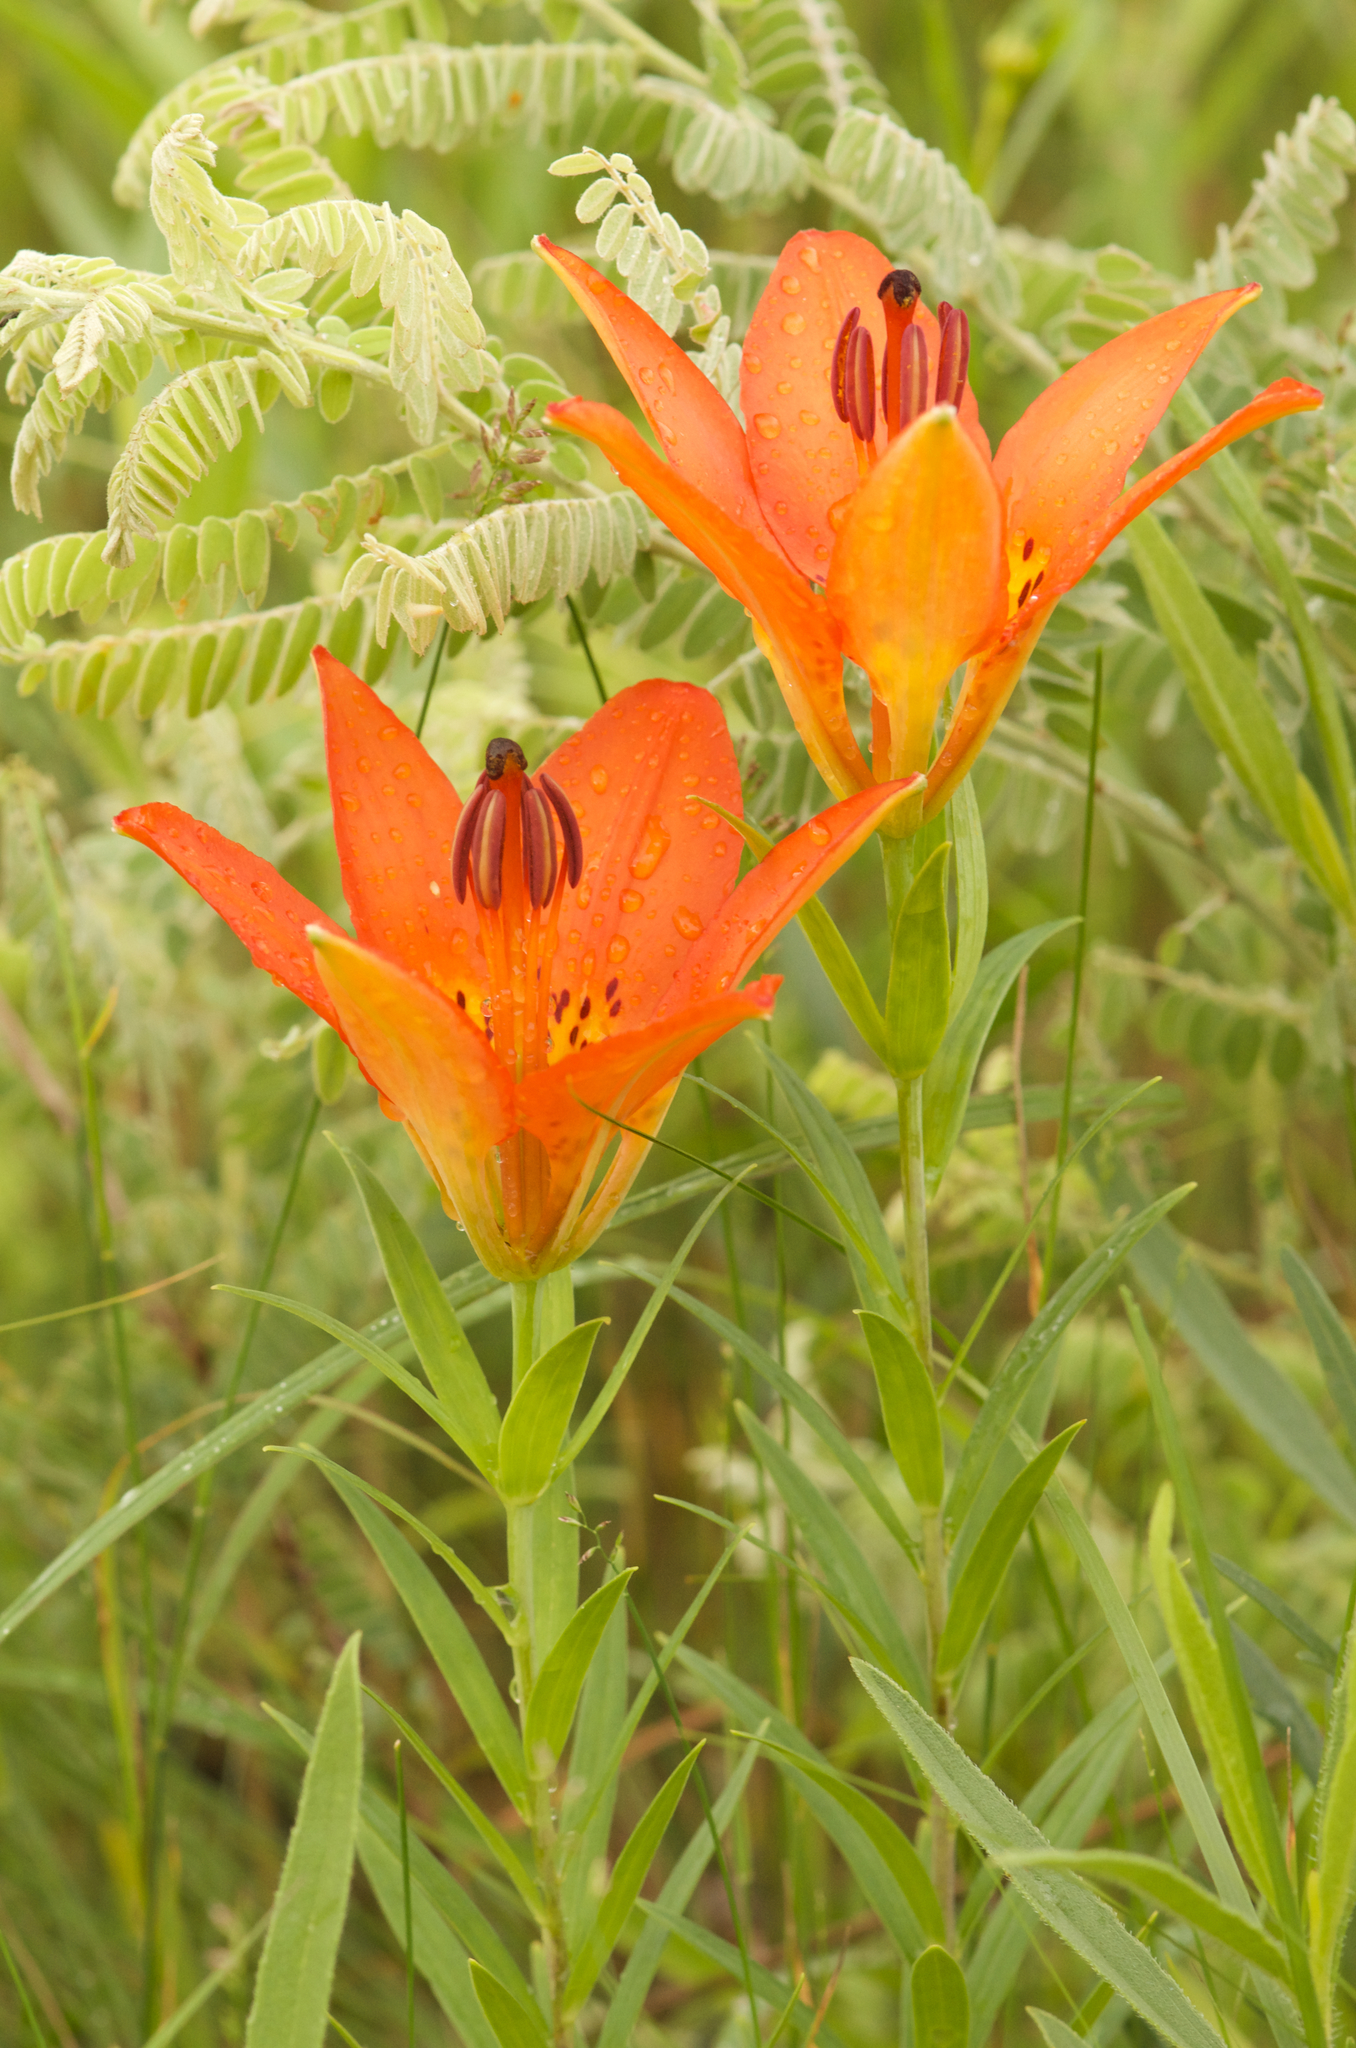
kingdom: Plantae
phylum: Tracheophyta
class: Liliopsida
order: Liliales
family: Liliaceae
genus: Lilium
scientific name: Lilium philadelphicum
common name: Red lily
